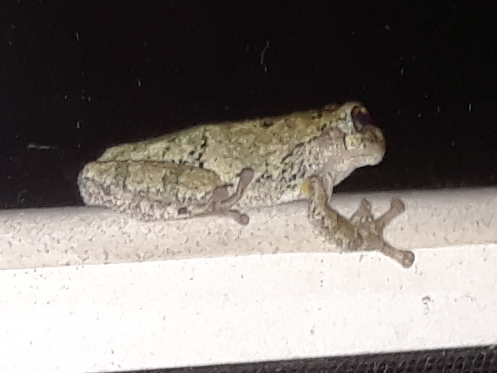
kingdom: Animalia
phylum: Chordata
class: Amphibia
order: Anura
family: Hylidae
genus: Hyla
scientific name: Hyla
